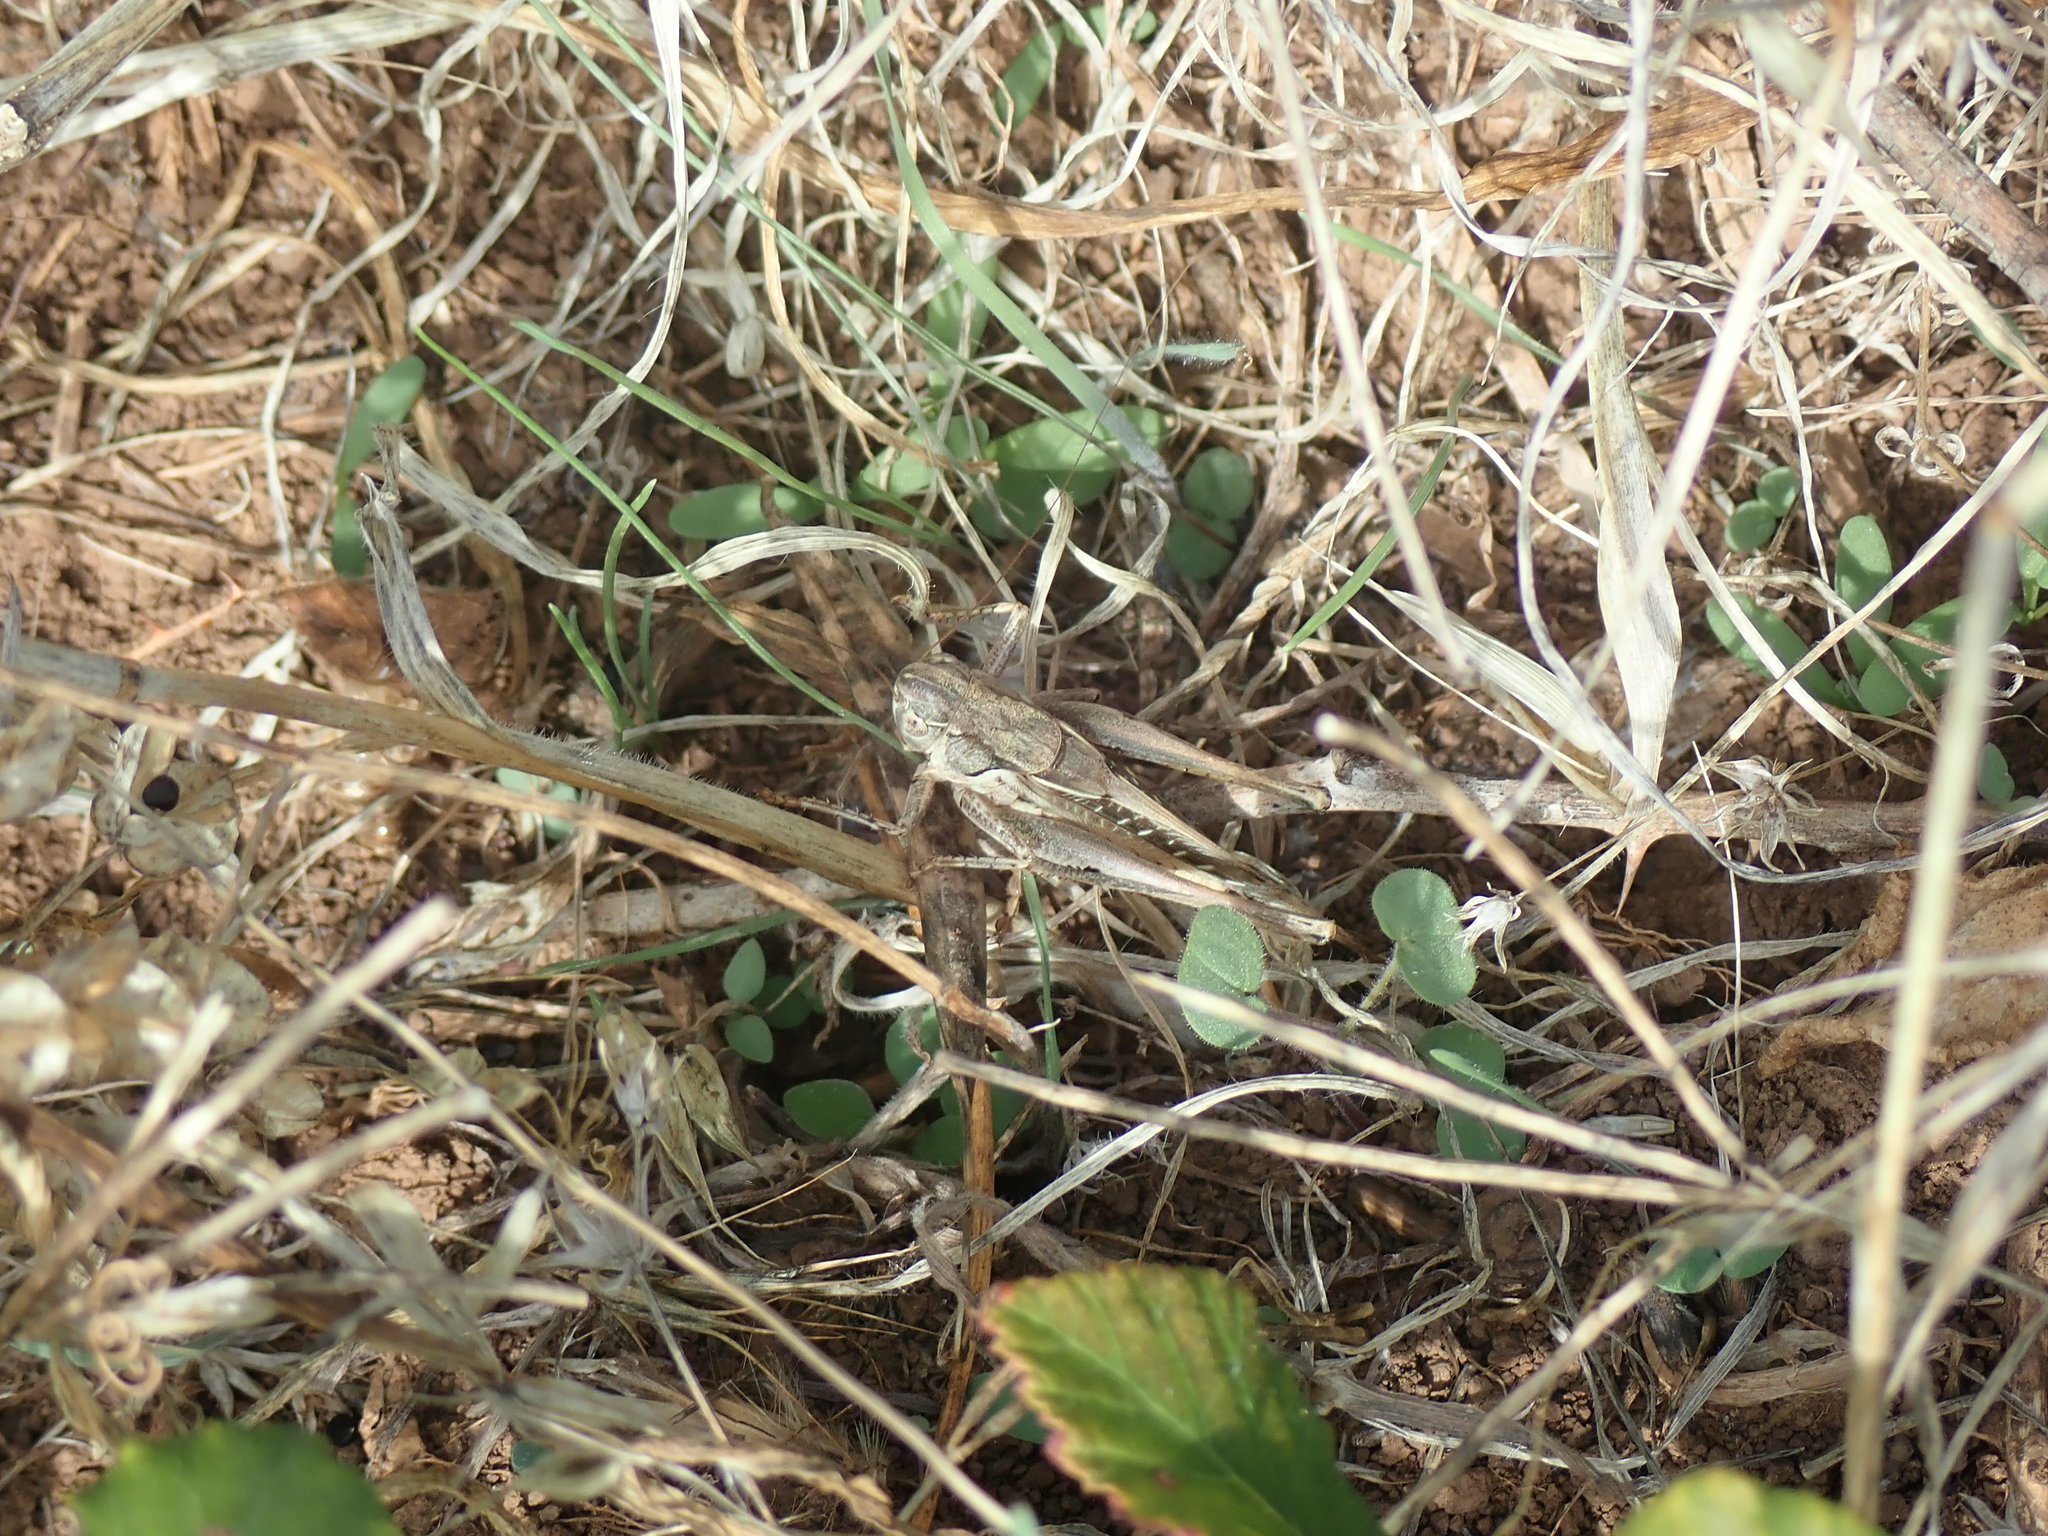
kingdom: Animalia
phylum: Arthropoda
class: Insecta
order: Orthoptera
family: Tettigoniidae
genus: Platycleis
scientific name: Platycleis affinis
